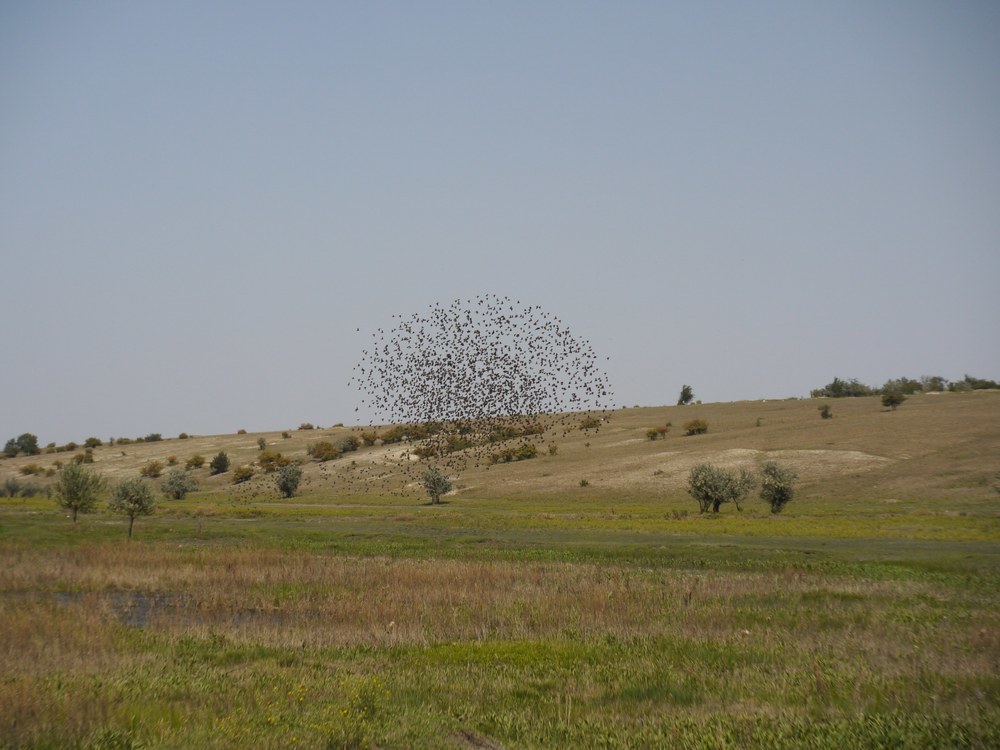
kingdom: Animalia
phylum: Chordata
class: Aves
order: Passeriformes
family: Sturnidae
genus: Sturnus
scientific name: Sturnus vulgaris
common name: Common starling
